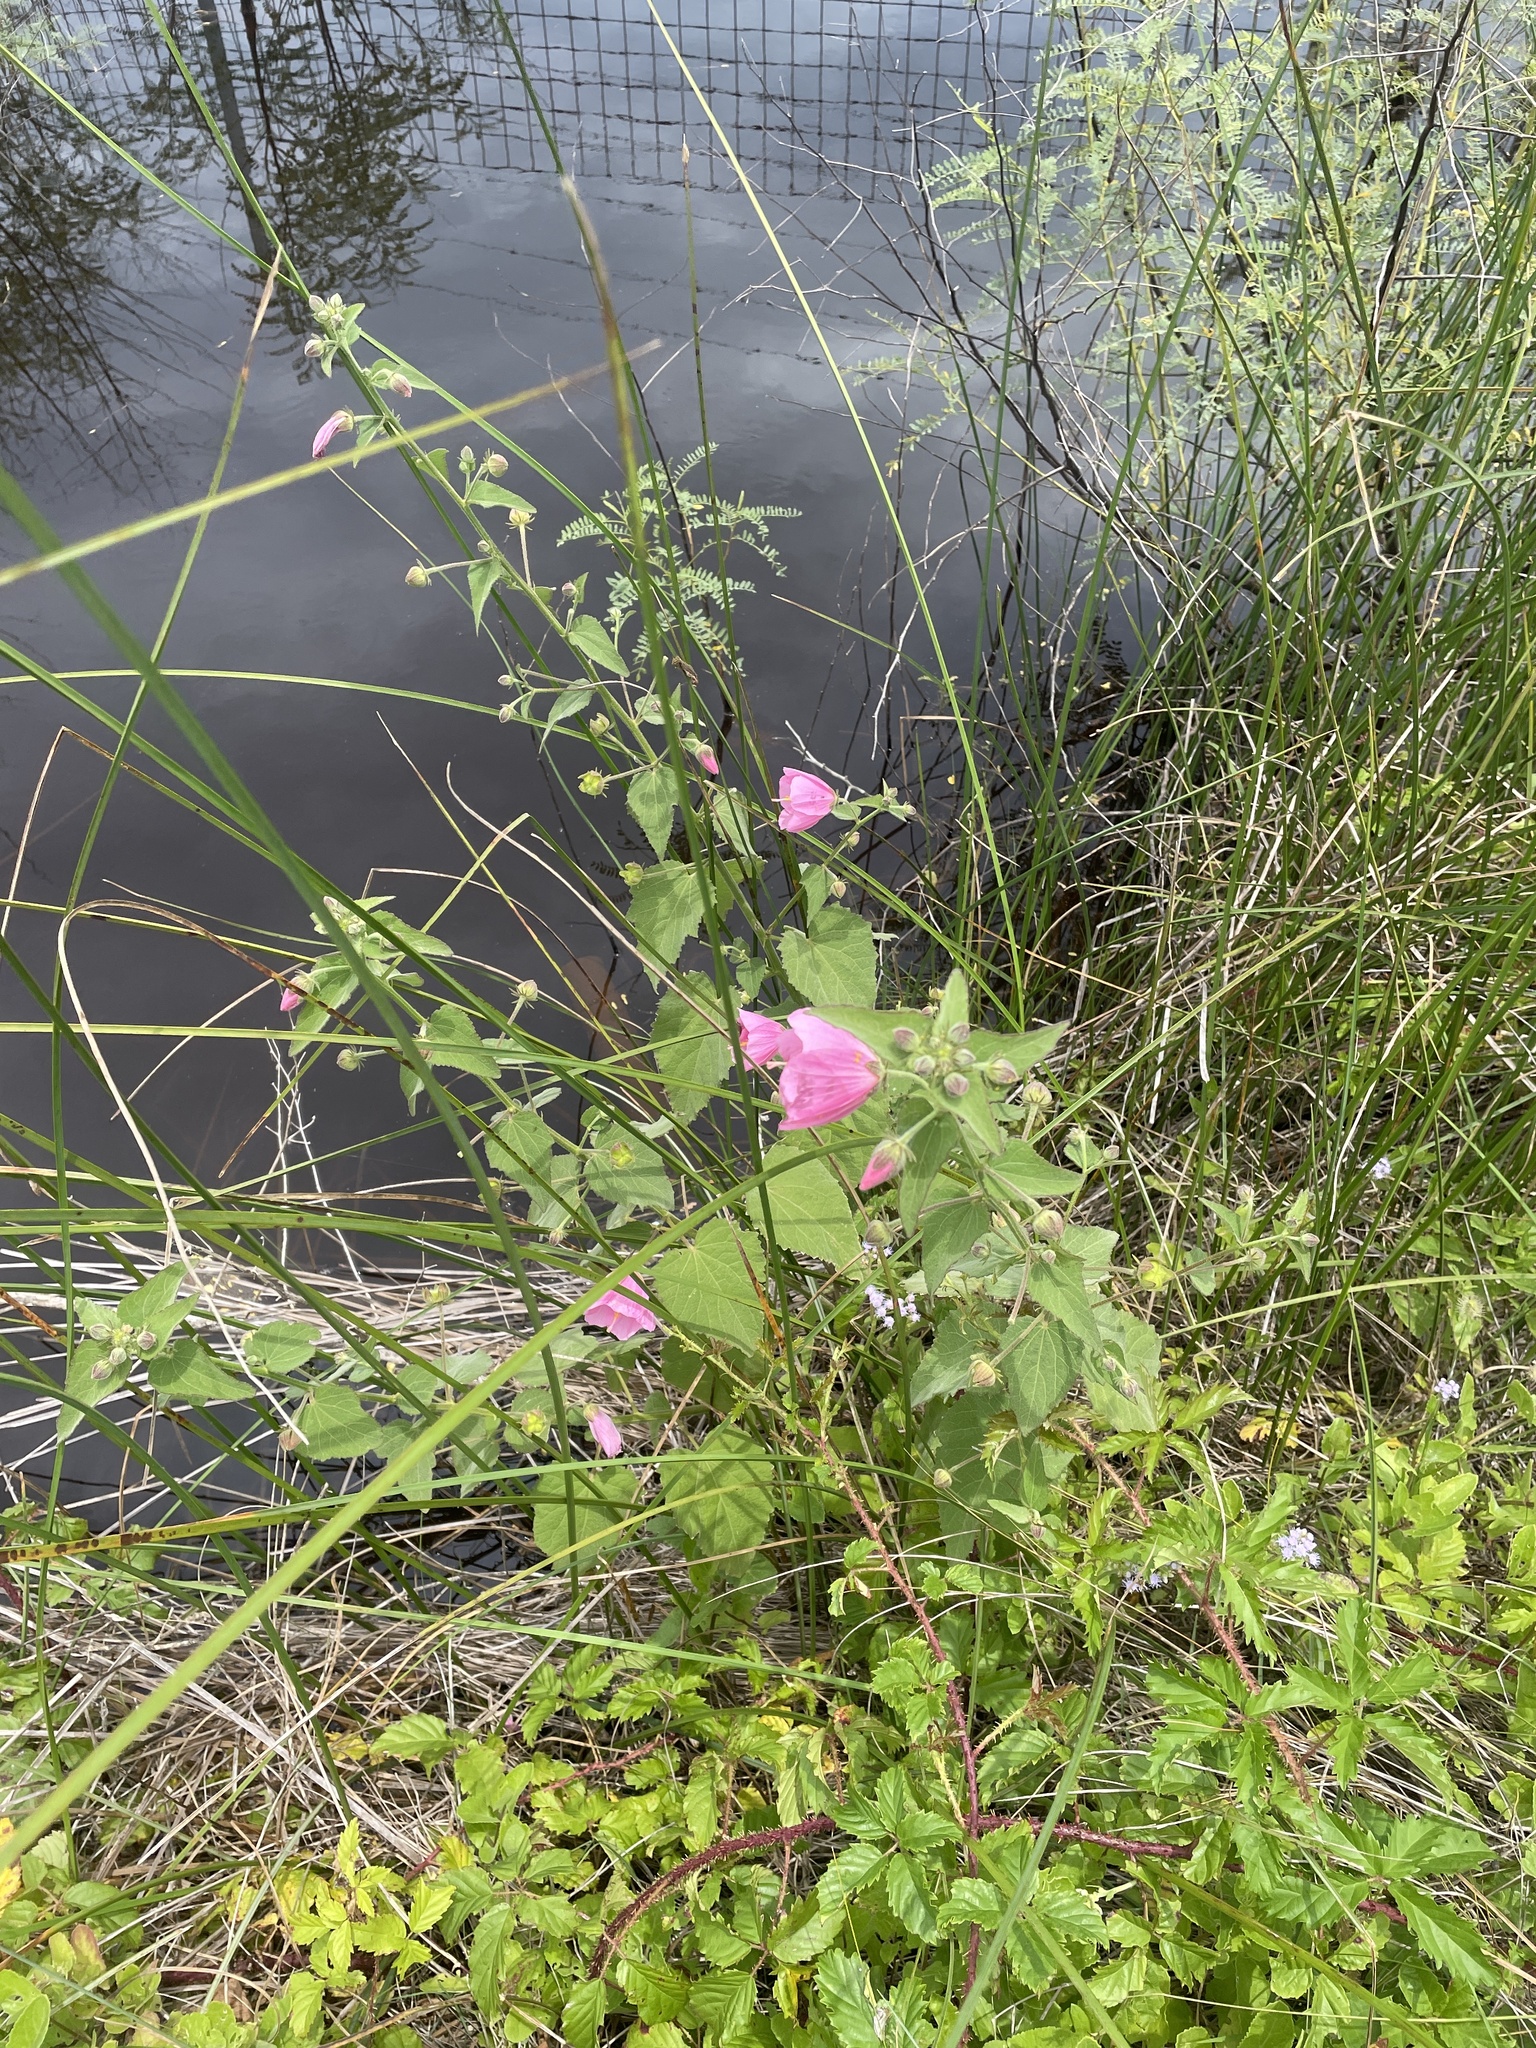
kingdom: Plantae
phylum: Tracheophyta
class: Magnoliopsida
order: Malvales
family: Malvaceae
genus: Kosteletzkya
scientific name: Kosteletzkya pentacarpos
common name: Virginia saltmarsh mallow
